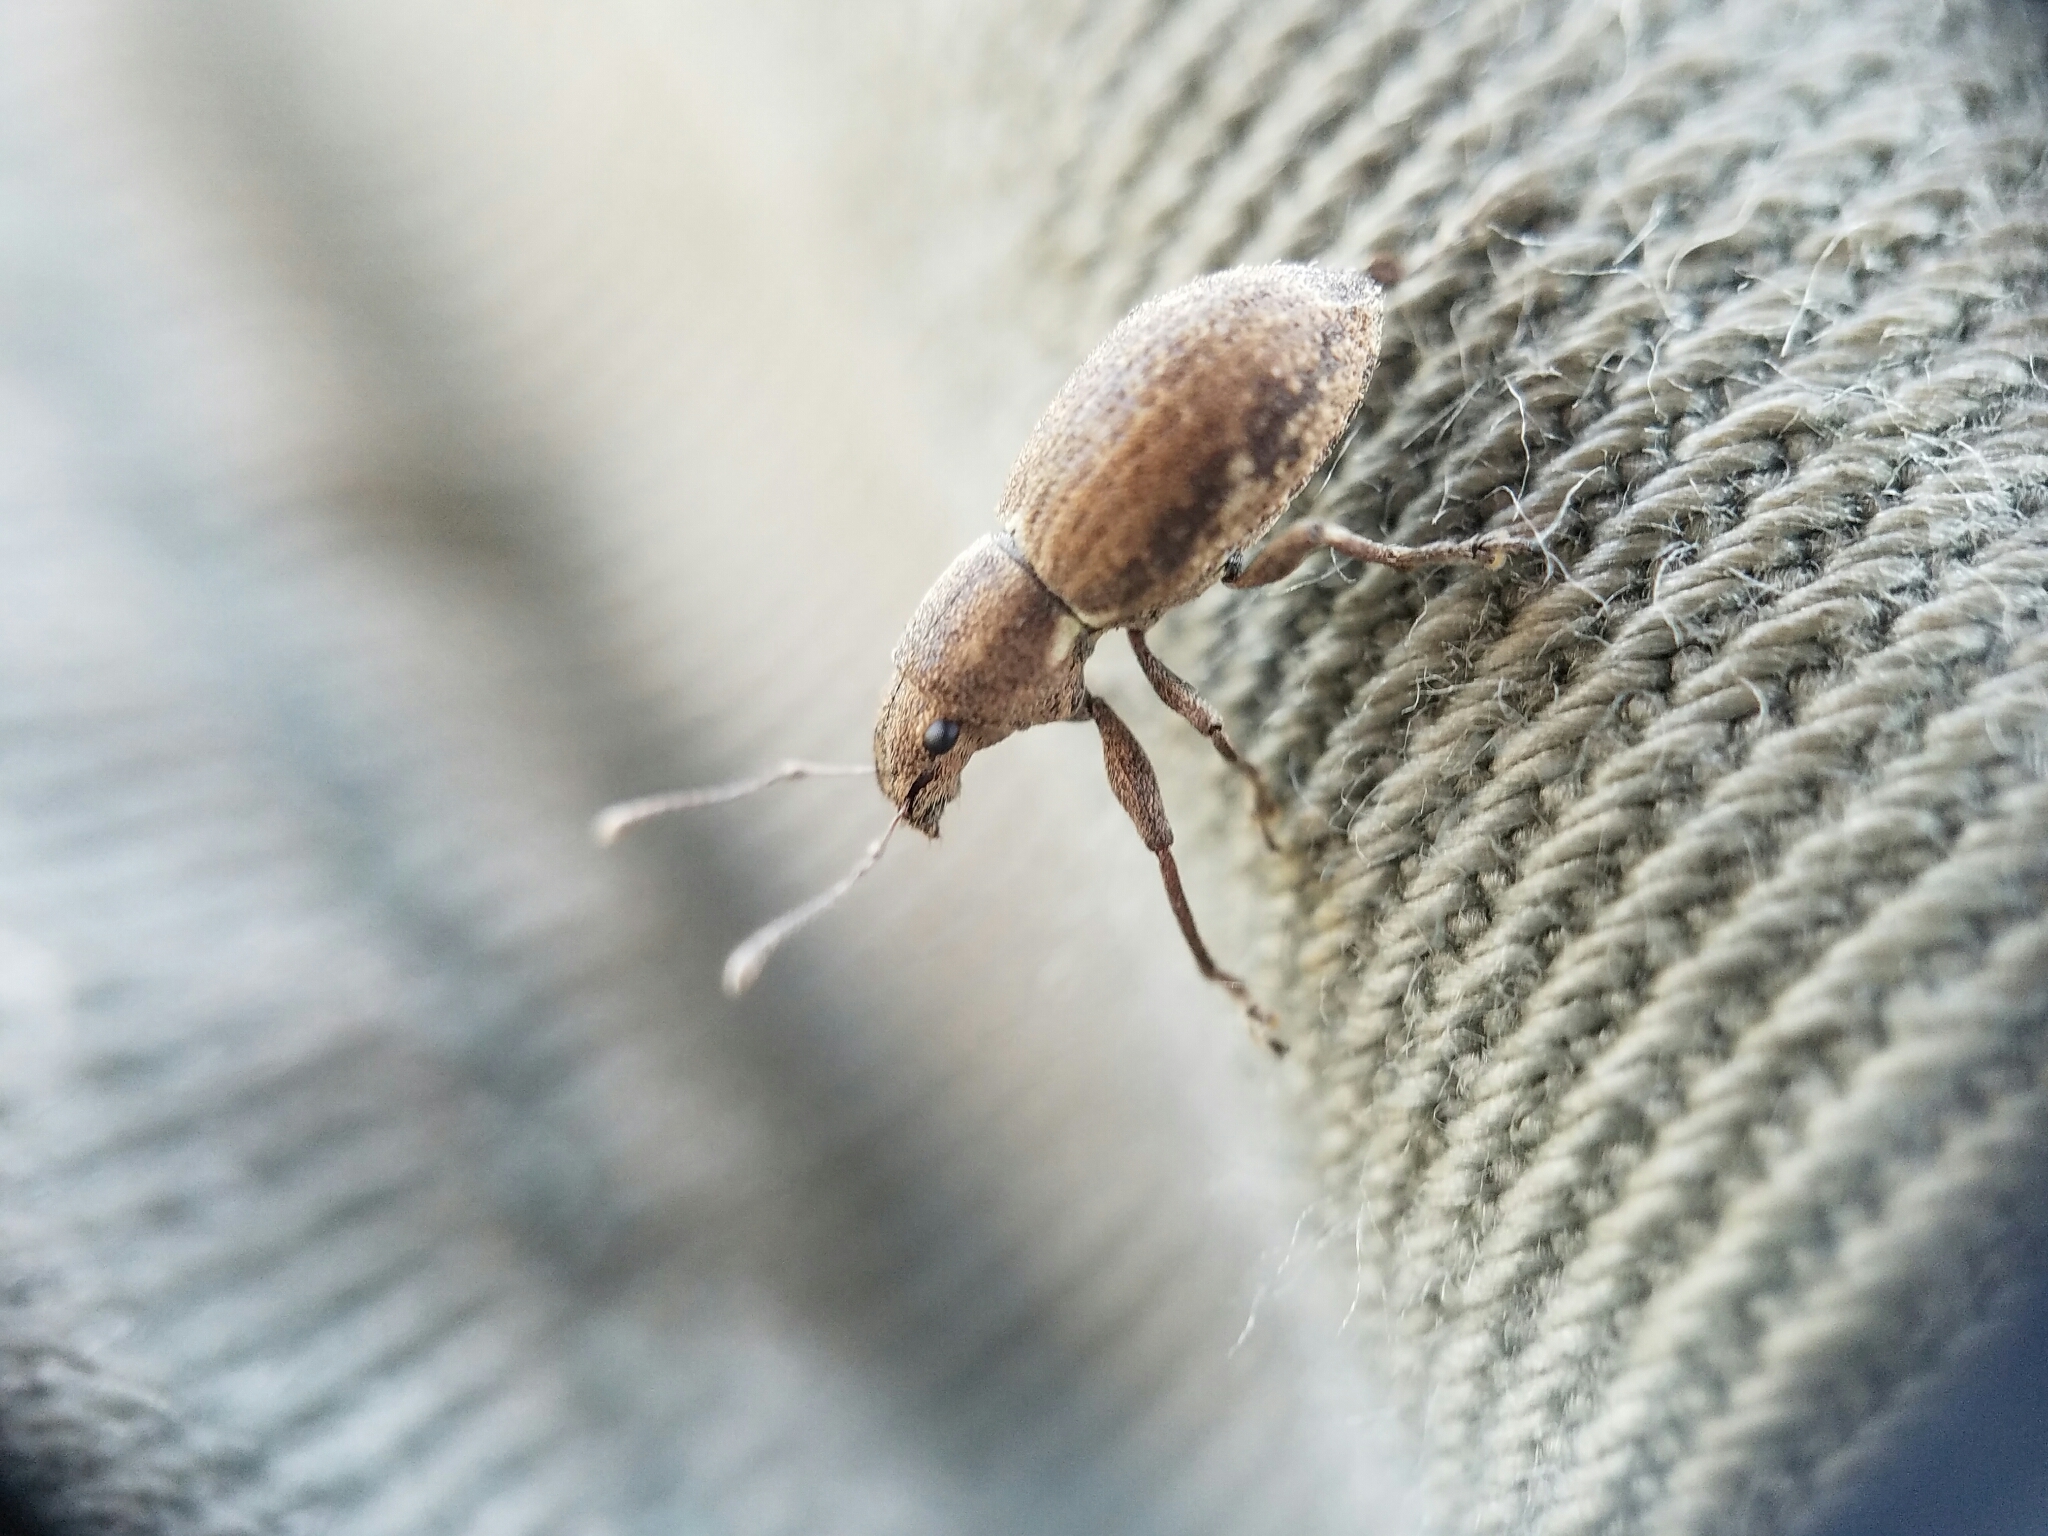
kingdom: Animalia
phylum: Arthropoda
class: Insecta
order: Coleoptera
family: Curculionidae
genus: Naupactus
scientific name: Naupactus cervinus
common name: Fuller rose beetle
